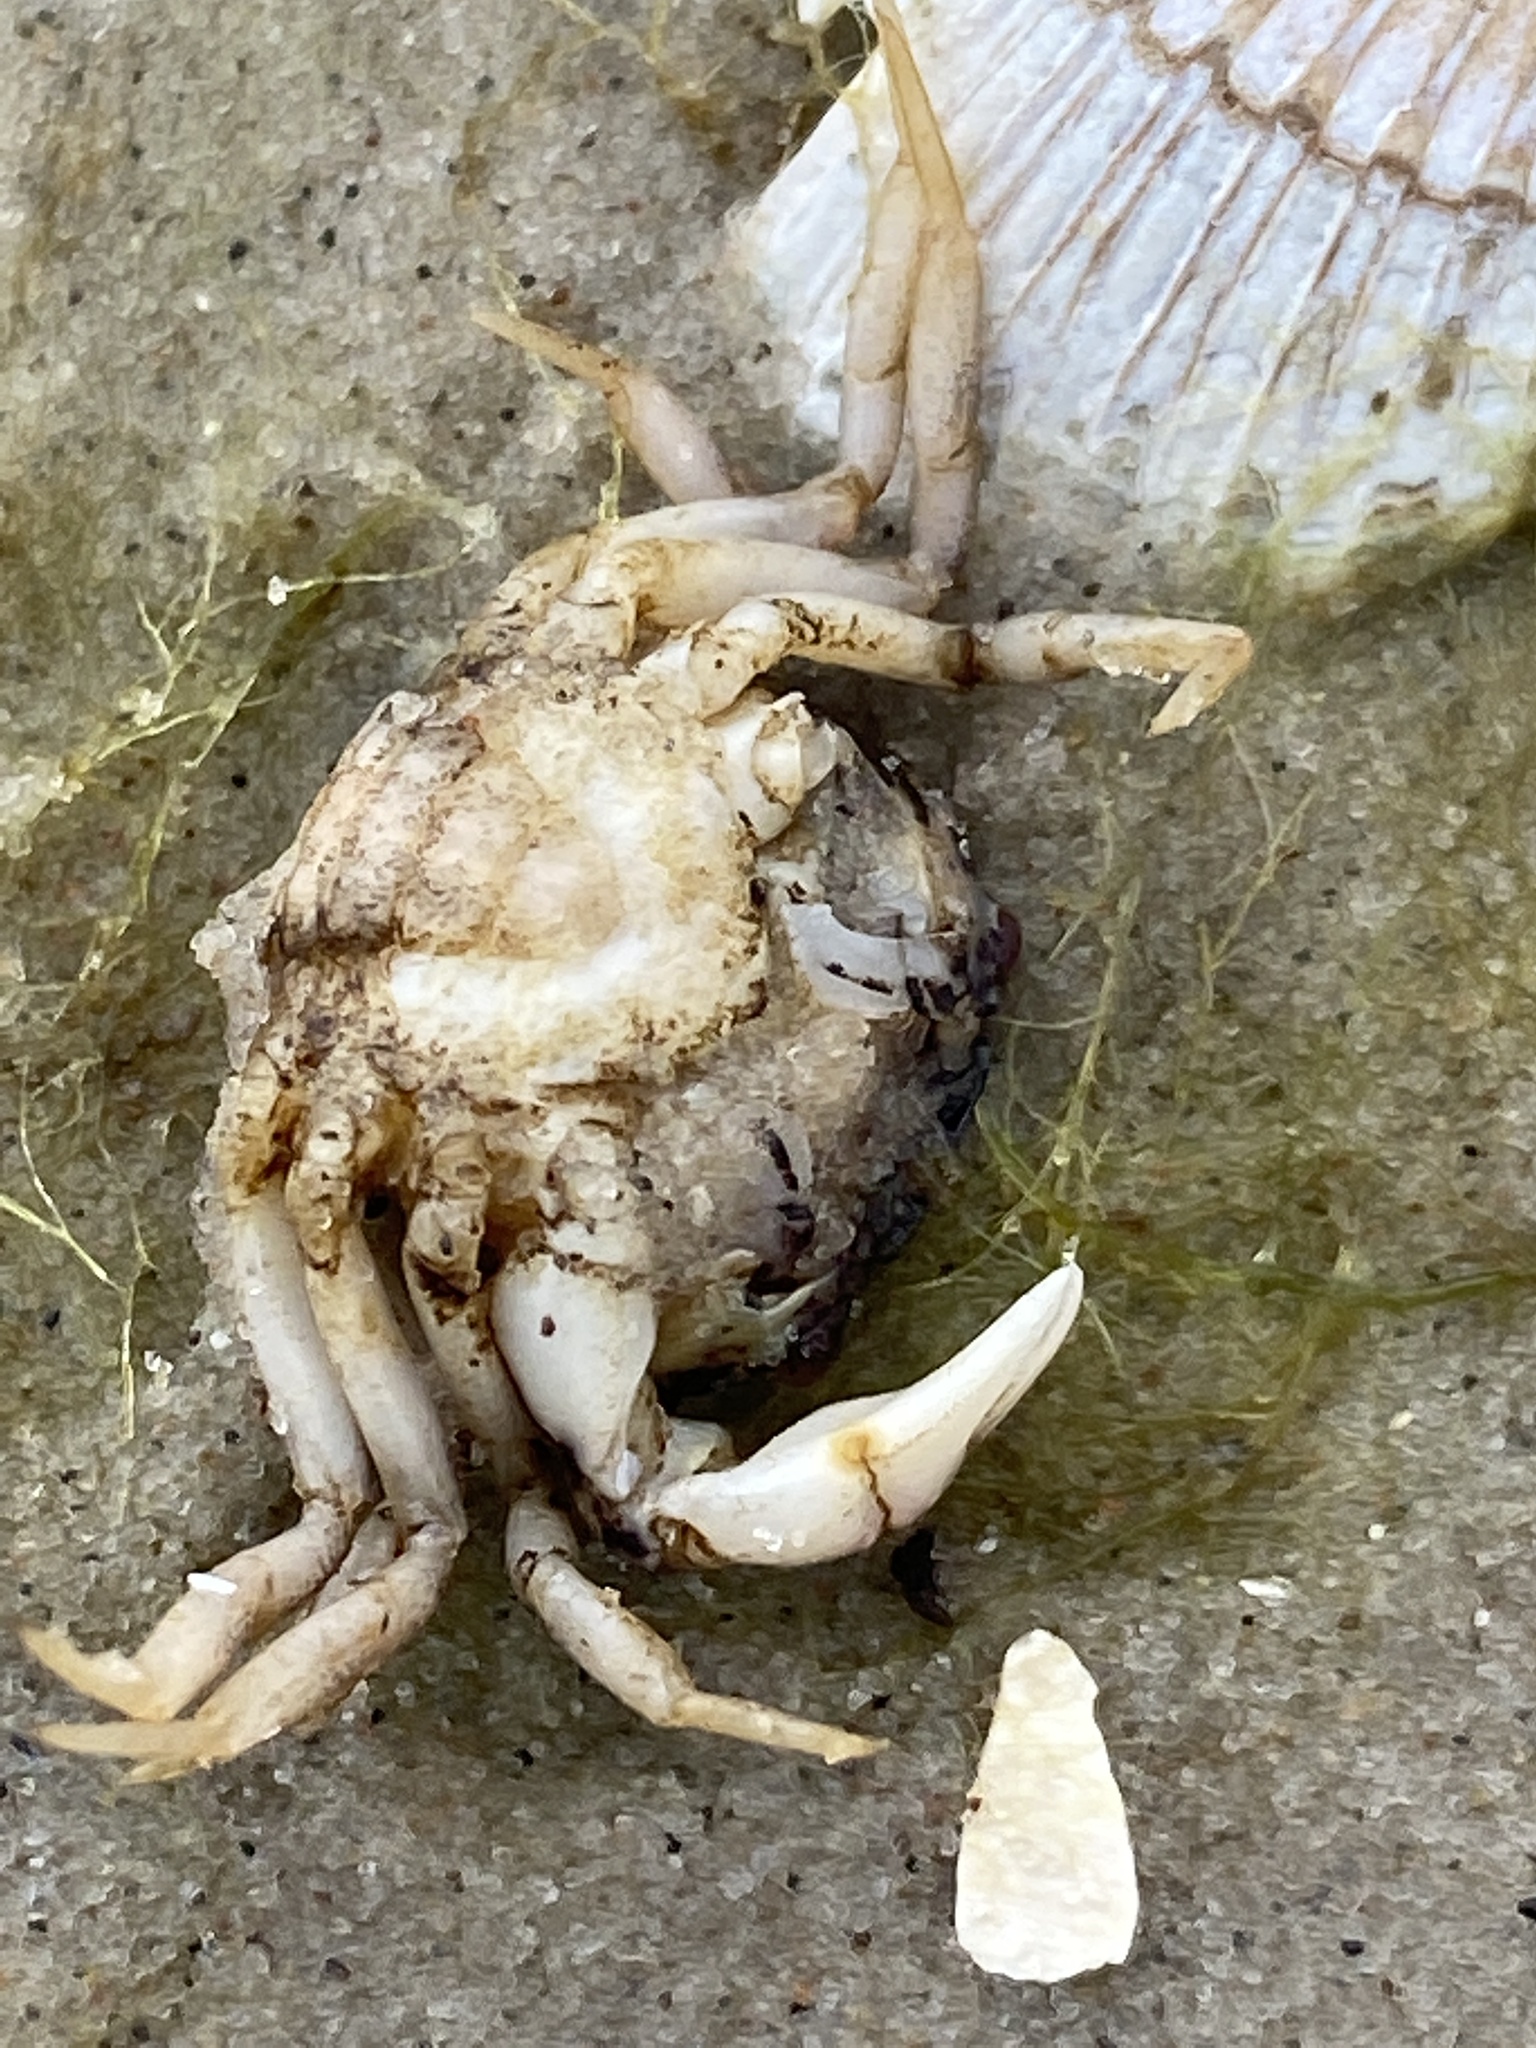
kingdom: Animalia
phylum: Arthropoda
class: Malacostraca
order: Decapoda
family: Panopeidae
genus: Rhithropanopeus
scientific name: Rhithropanopeus harrisii
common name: Dwarf crab
